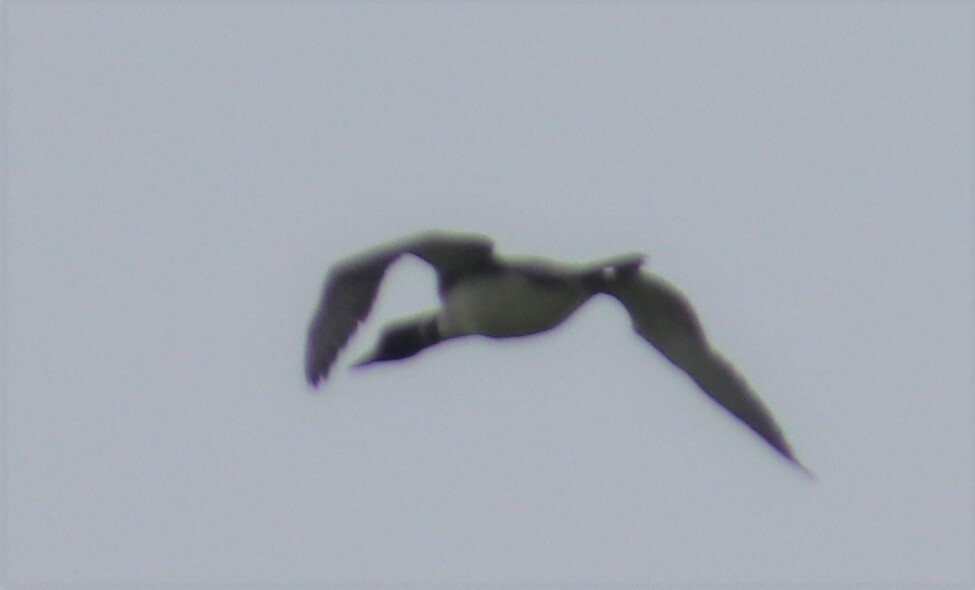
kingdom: Animalia
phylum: Chordata
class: Aves
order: Gaviiformes
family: Gaviidae
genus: Gavia
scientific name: Gavia immer
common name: Common loon
